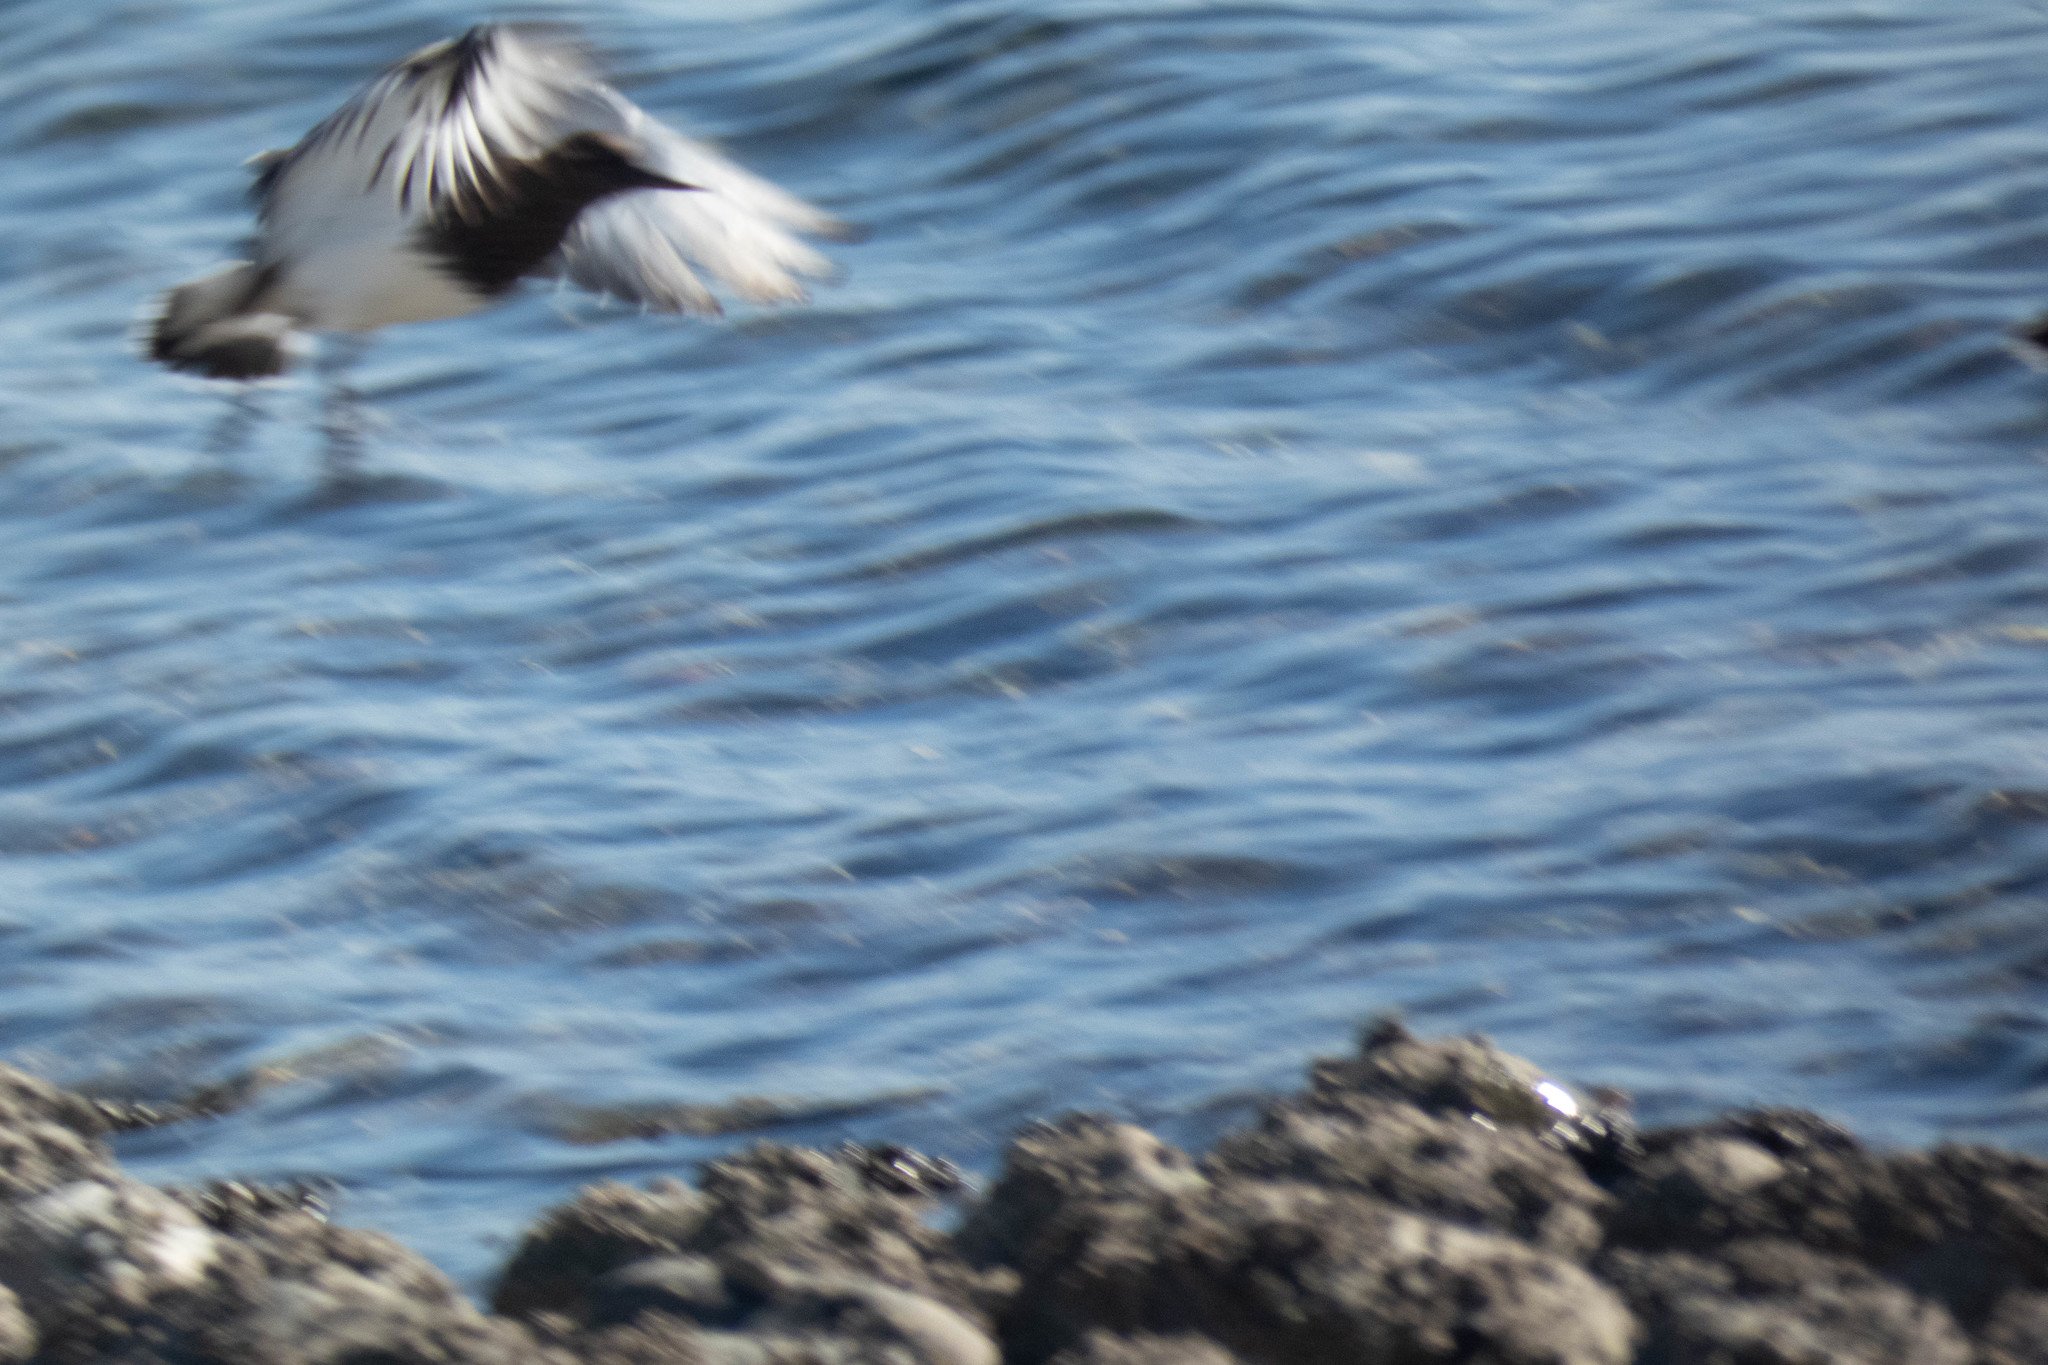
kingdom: Animalia
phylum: Chordata
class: Aves
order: Charadriiformes
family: Scolopacidae
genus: Arenaria
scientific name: Arenaria melanocephala
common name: Black turnstone
